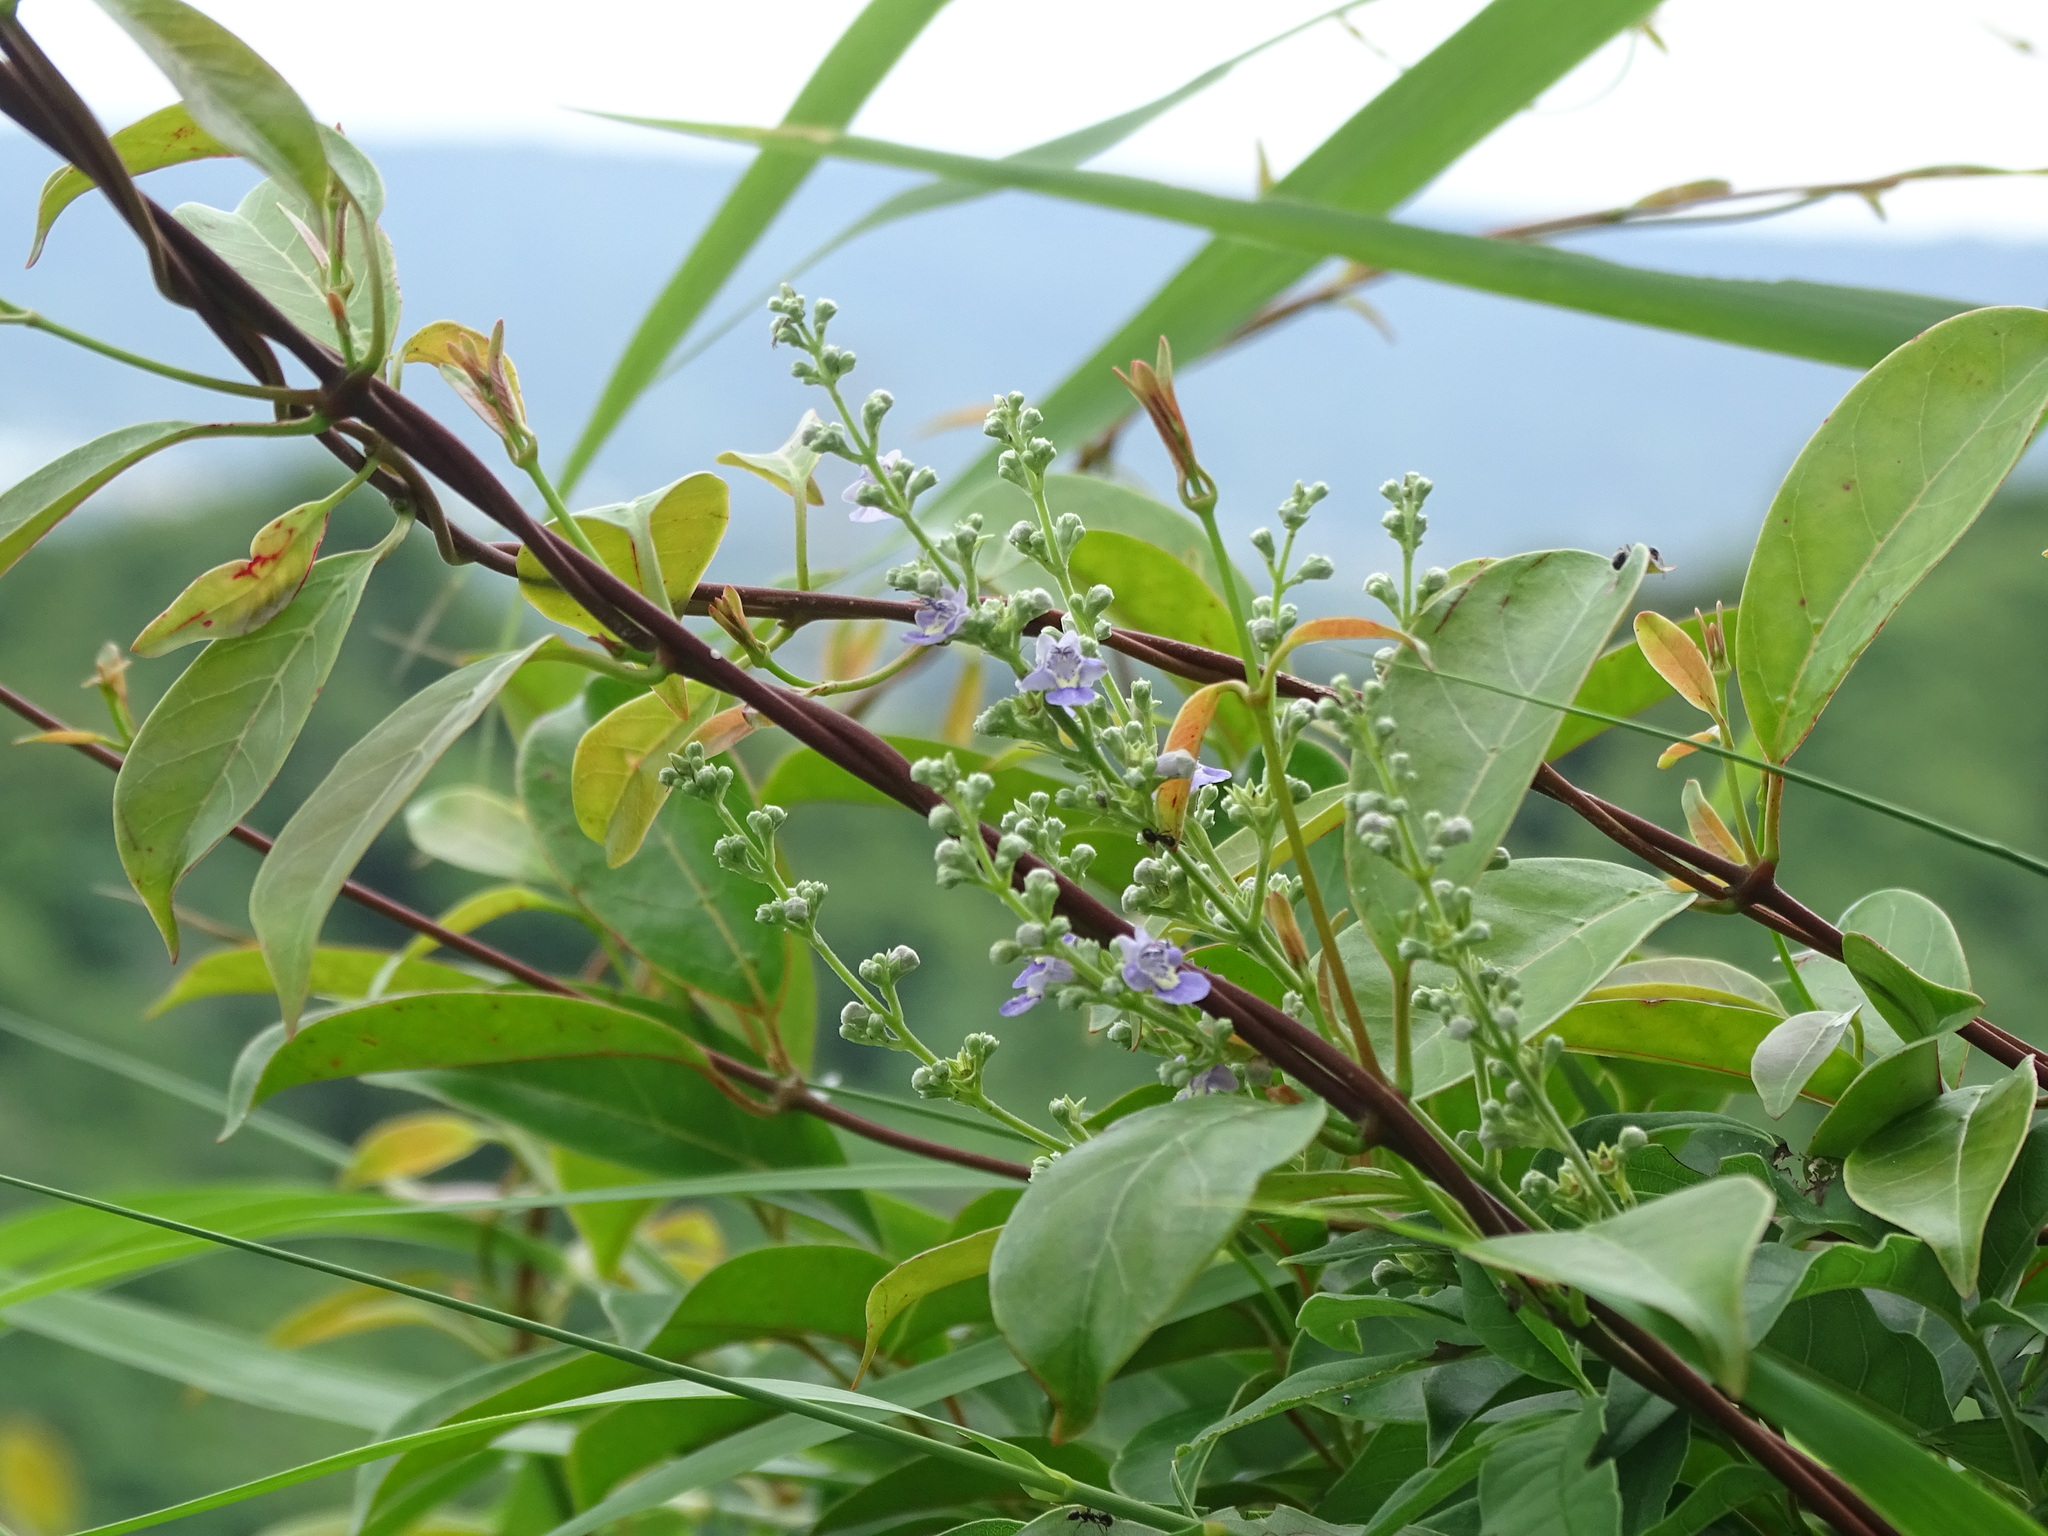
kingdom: Plantae
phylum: Tracheophyta
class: Magnoliopsida
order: Lamiales
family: Lamiaceae
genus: Vitex
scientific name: Vitex negundo
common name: Chinese chastetree
